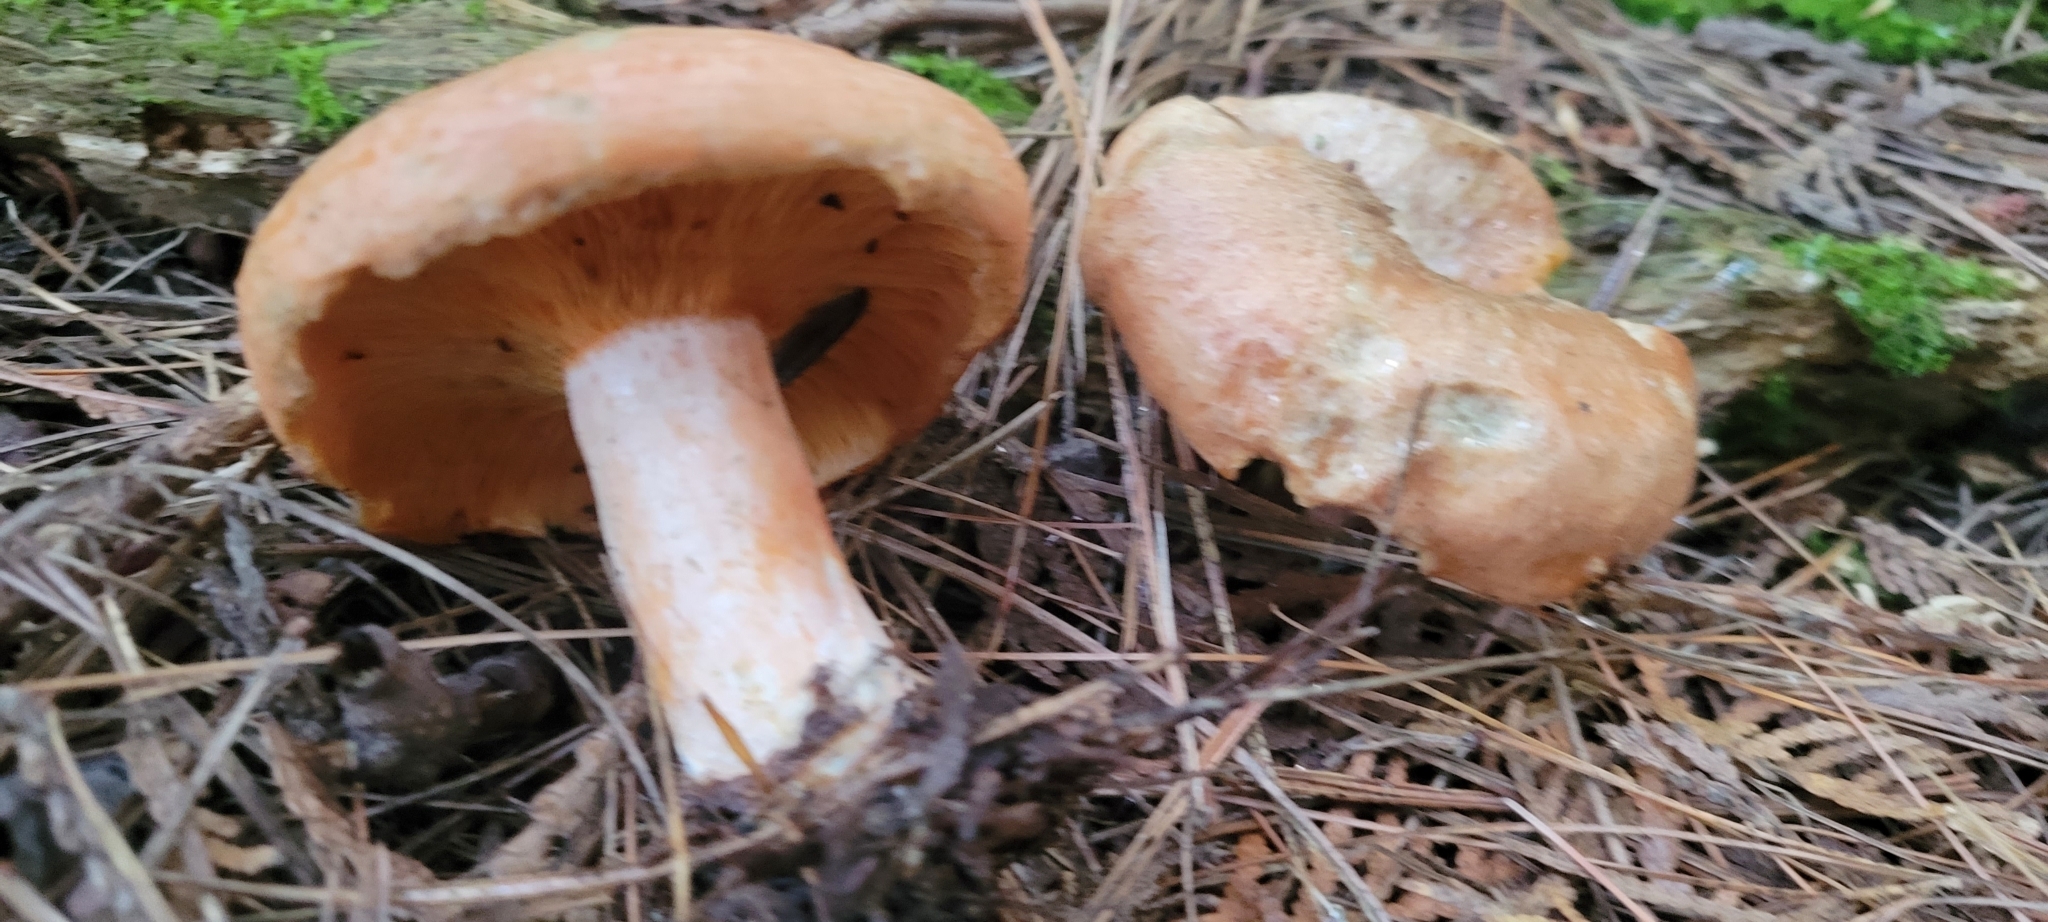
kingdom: Fungi
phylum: Basidiomycota
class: Agaricomycetes
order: Russulales
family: Russulaceae
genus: Lactarius
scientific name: Lactarius salmonicolor
